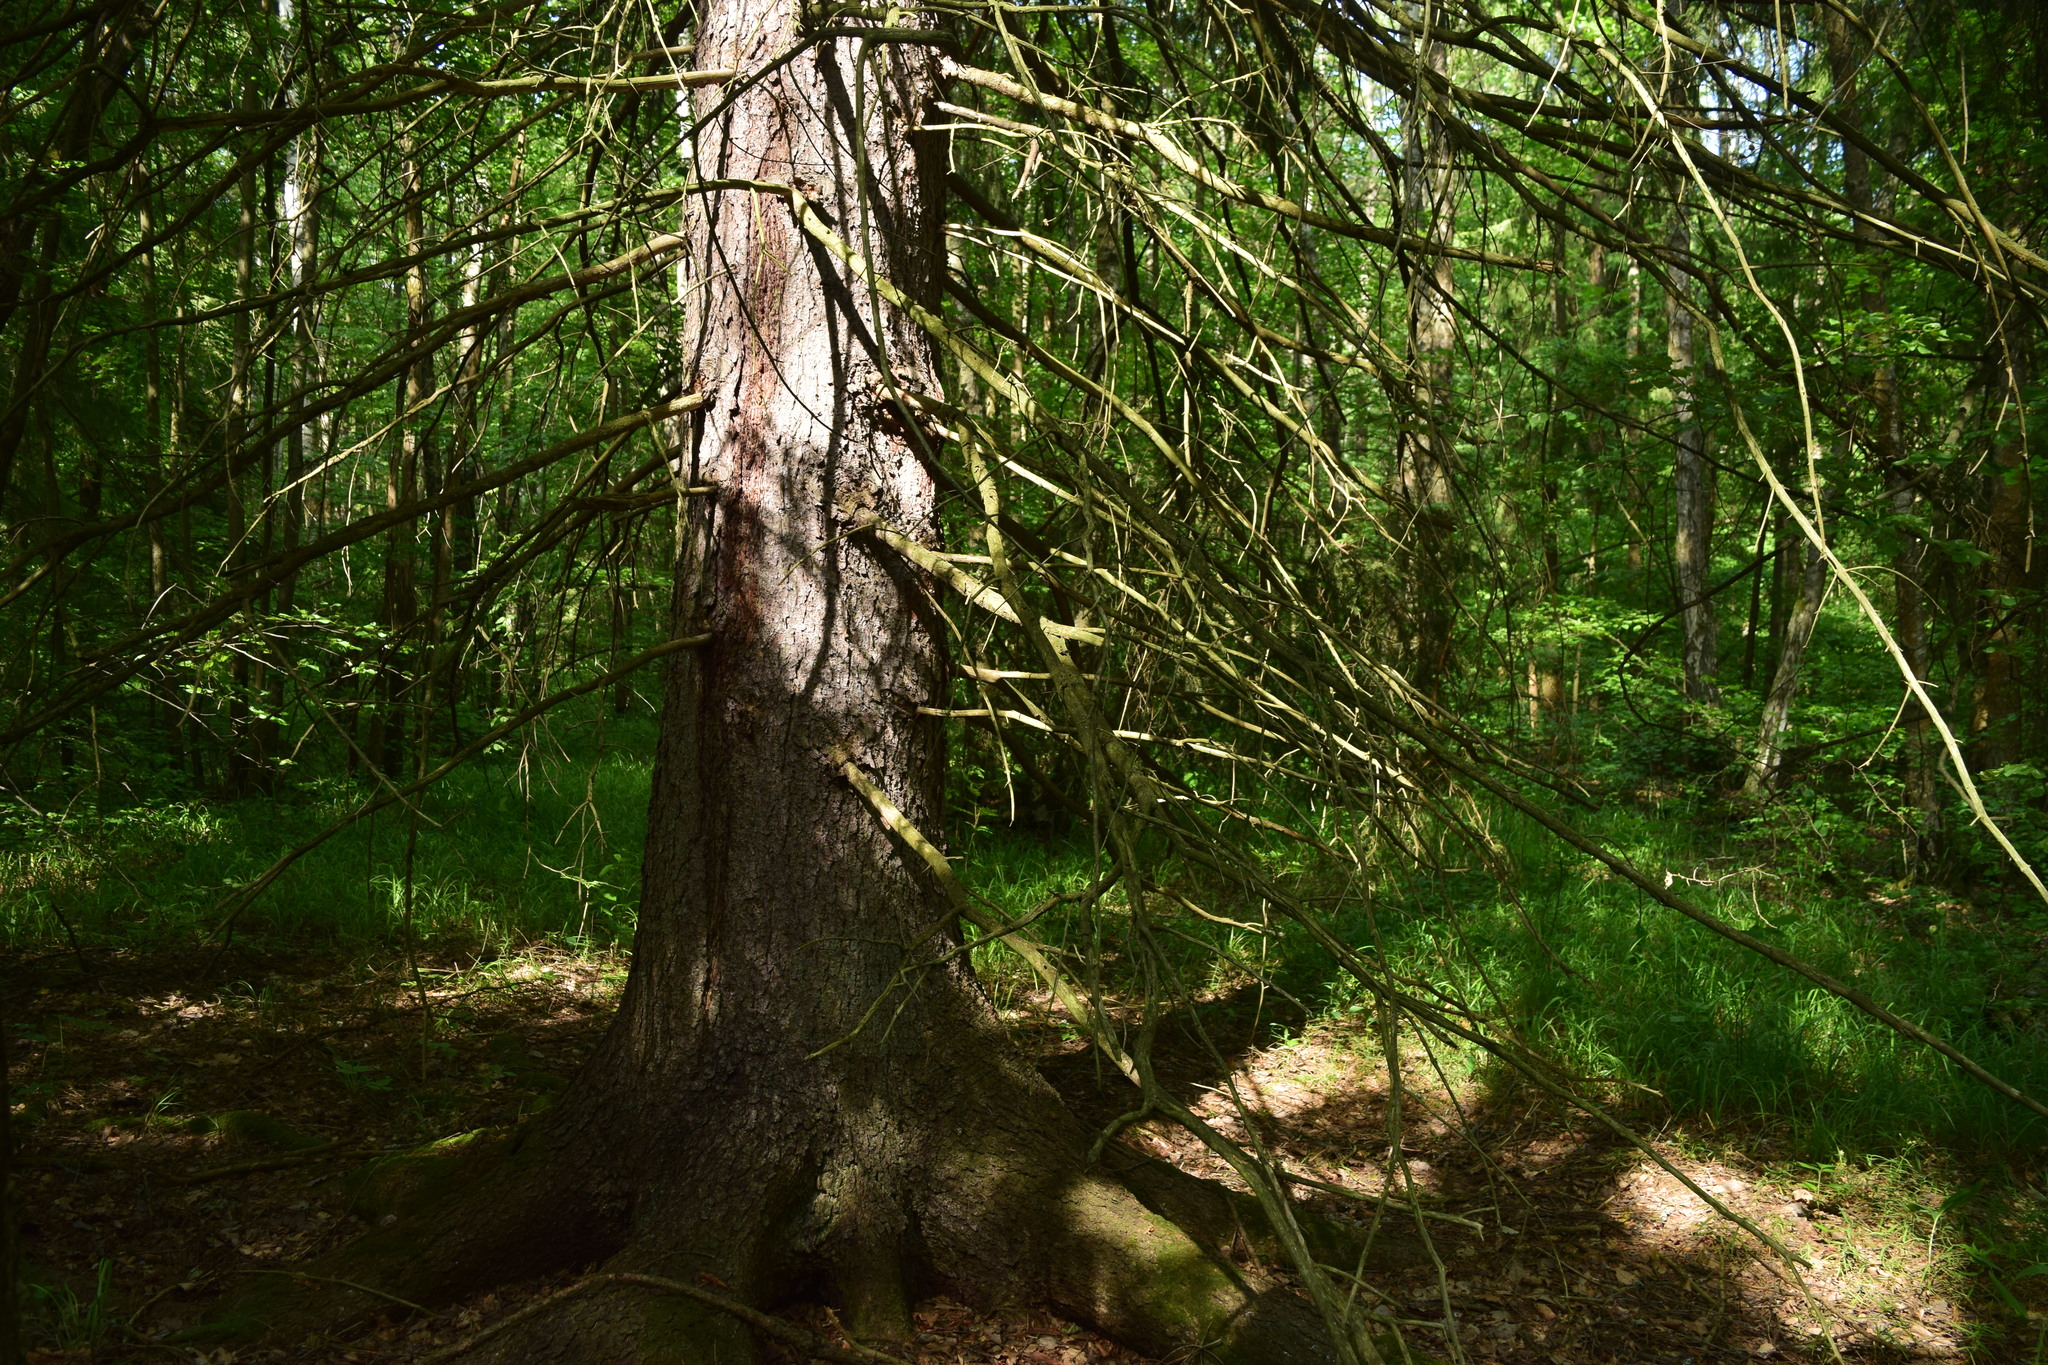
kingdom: Plantae
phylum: Tracheophyta
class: Pinopsida
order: Pinales
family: Pinaceae
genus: Picea
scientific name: Picea abies
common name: Norway spruce
